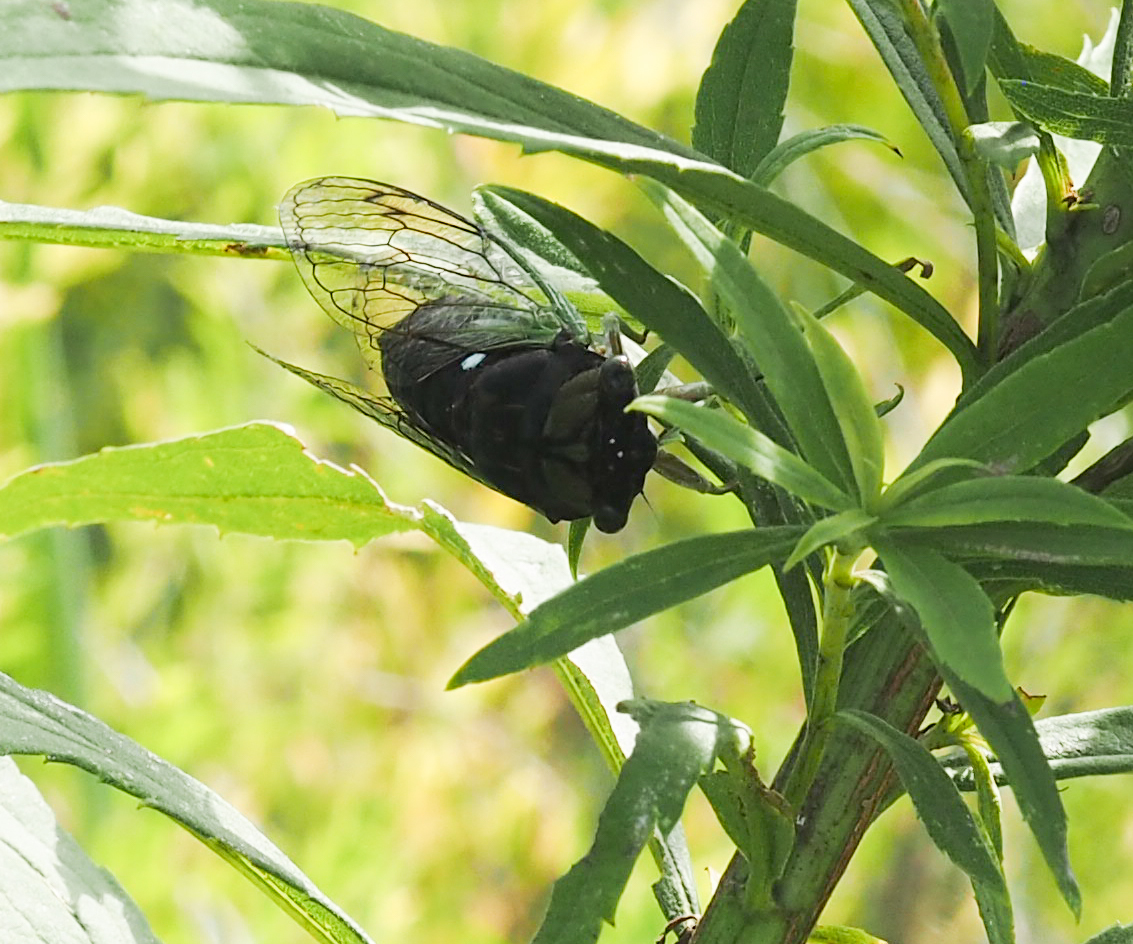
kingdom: Animalia
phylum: Arthropoda
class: Insecta
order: Hemiptera
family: Cicadidae
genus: Neotibicen
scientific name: Neotibicen tibicen
